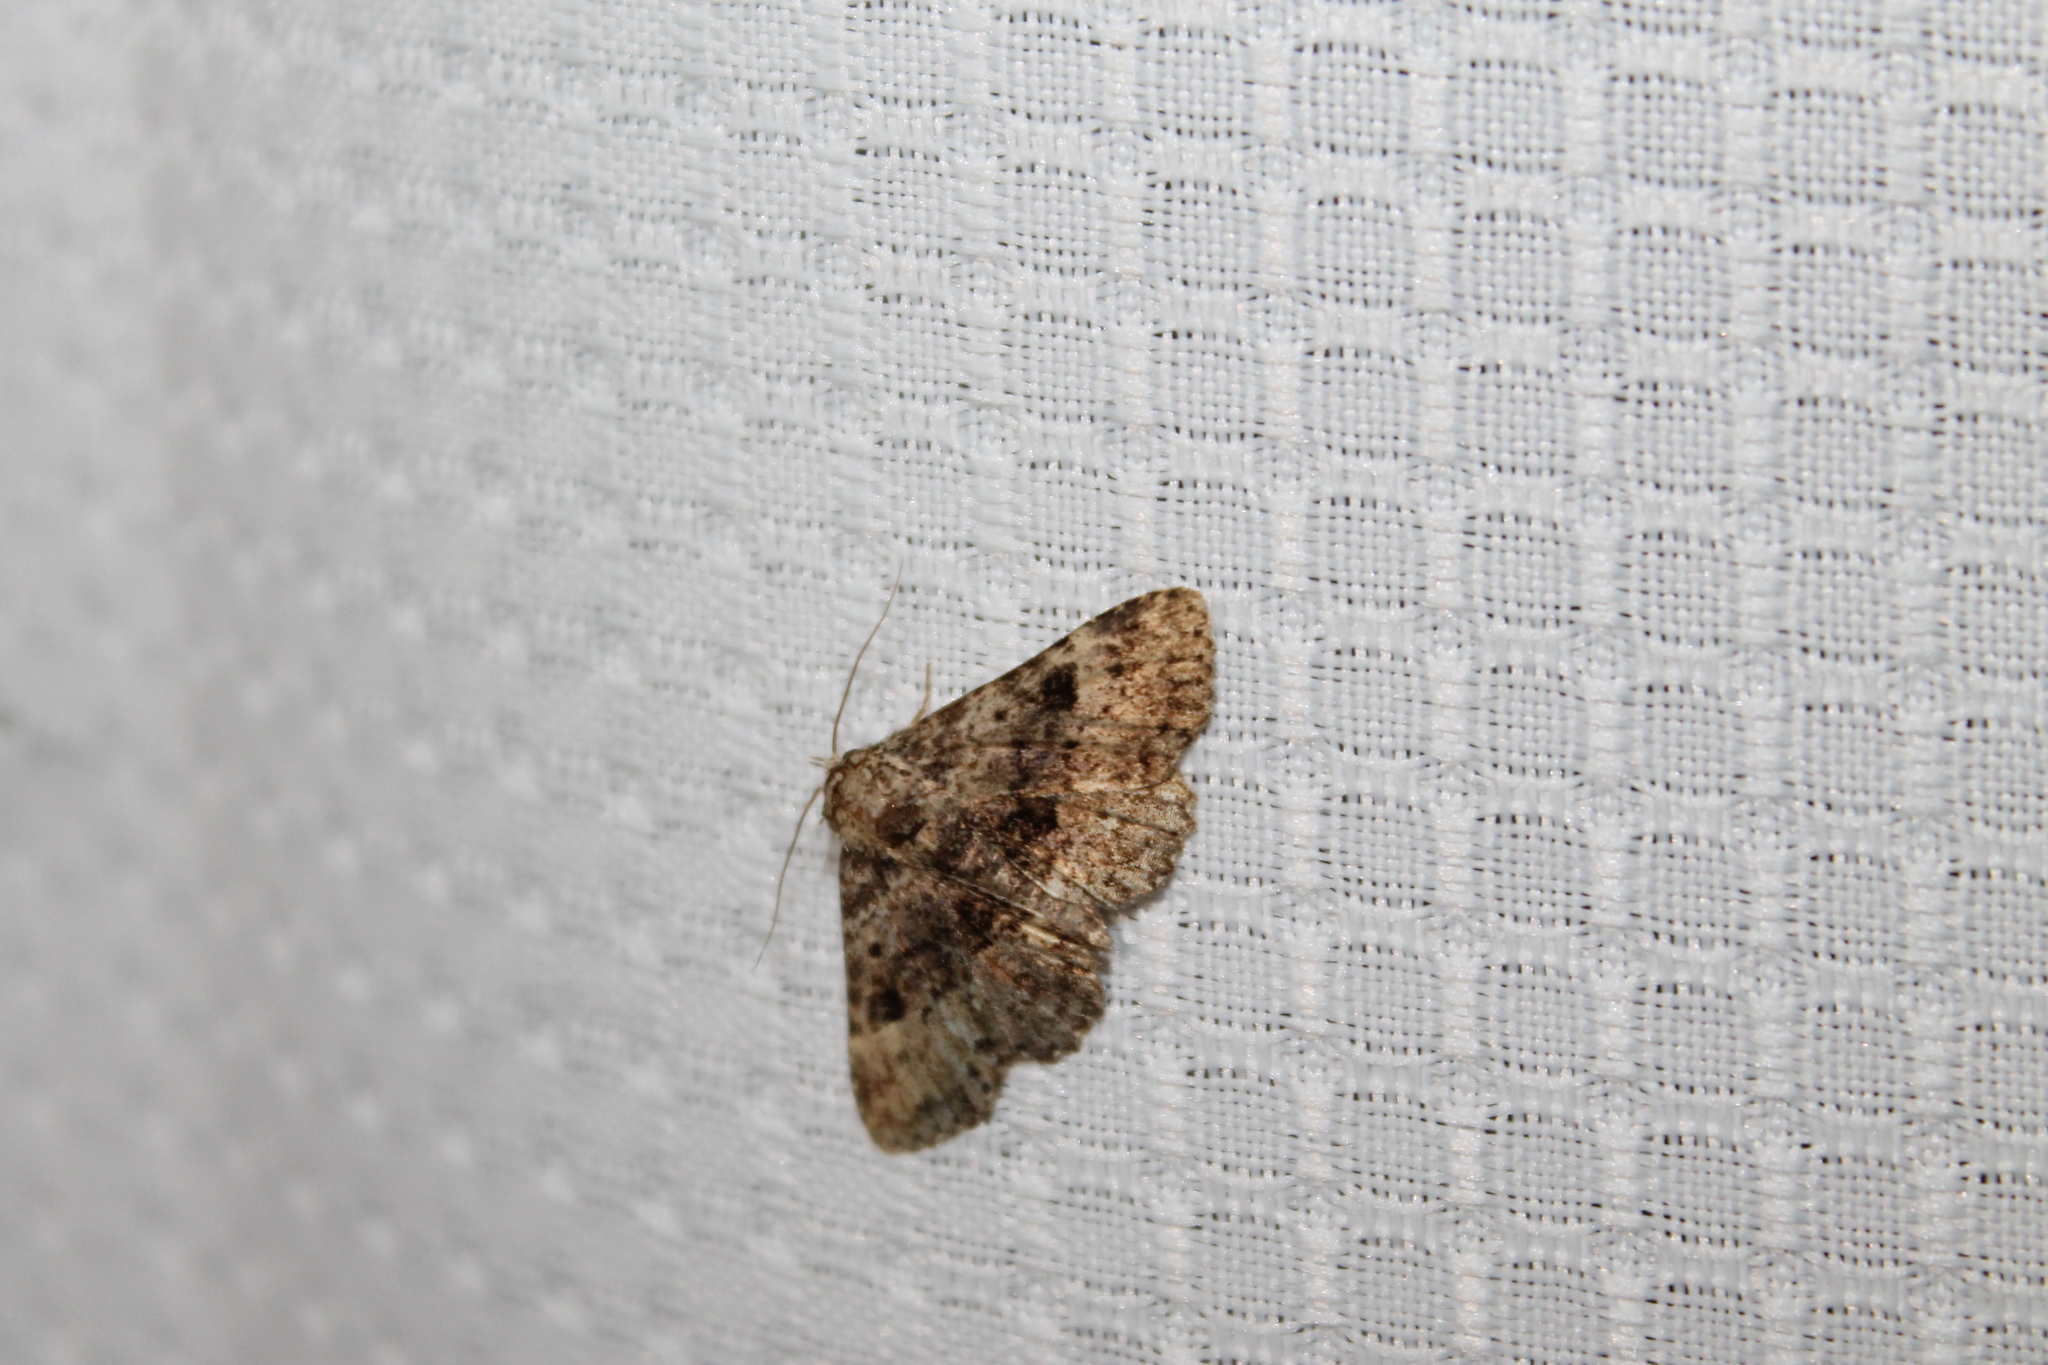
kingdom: Animalia
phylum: Arthropoda
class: Insecta
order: Lepidoptera
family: Erebidae
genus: Metalectra
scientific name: Metalectra discalis
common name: Common fungus moth
